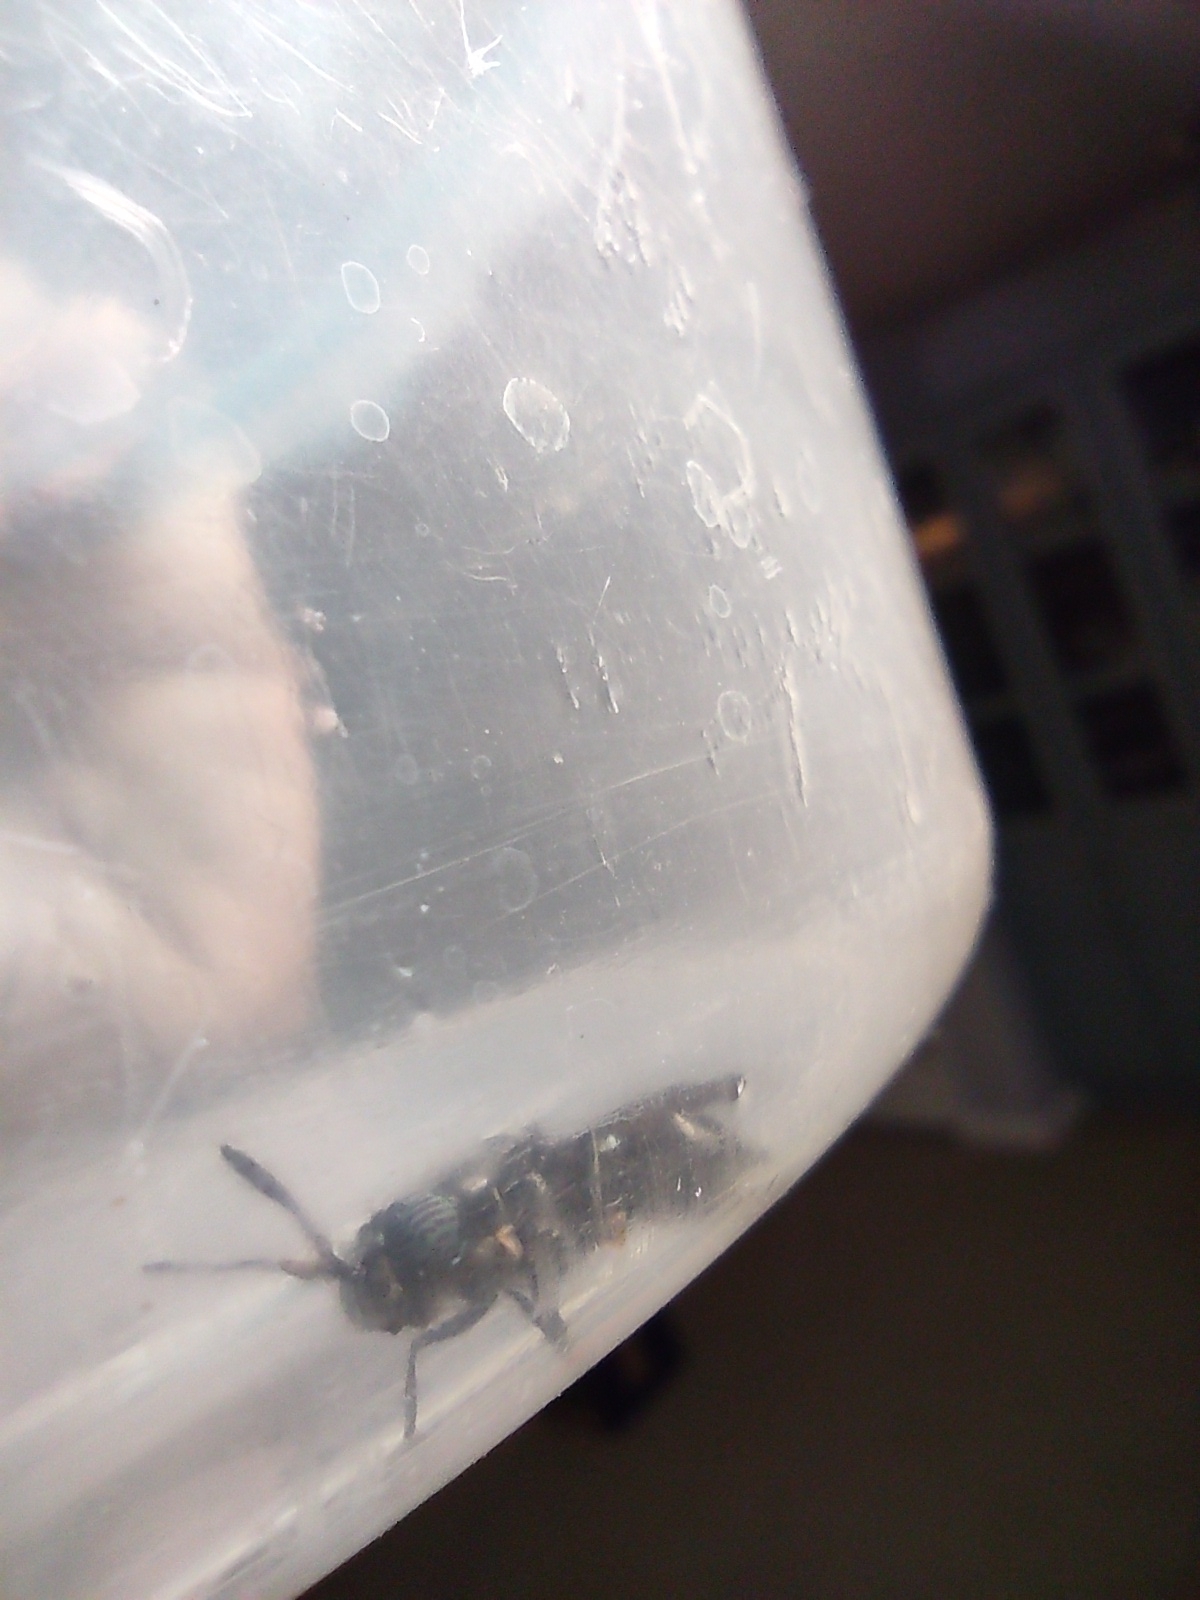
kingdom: Animalia
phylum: Arthropoda
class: Insecta
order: Diptera
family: Stratiomyidae
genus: Hermetia
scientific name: Hermetia illucens
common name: Black soldier fly
